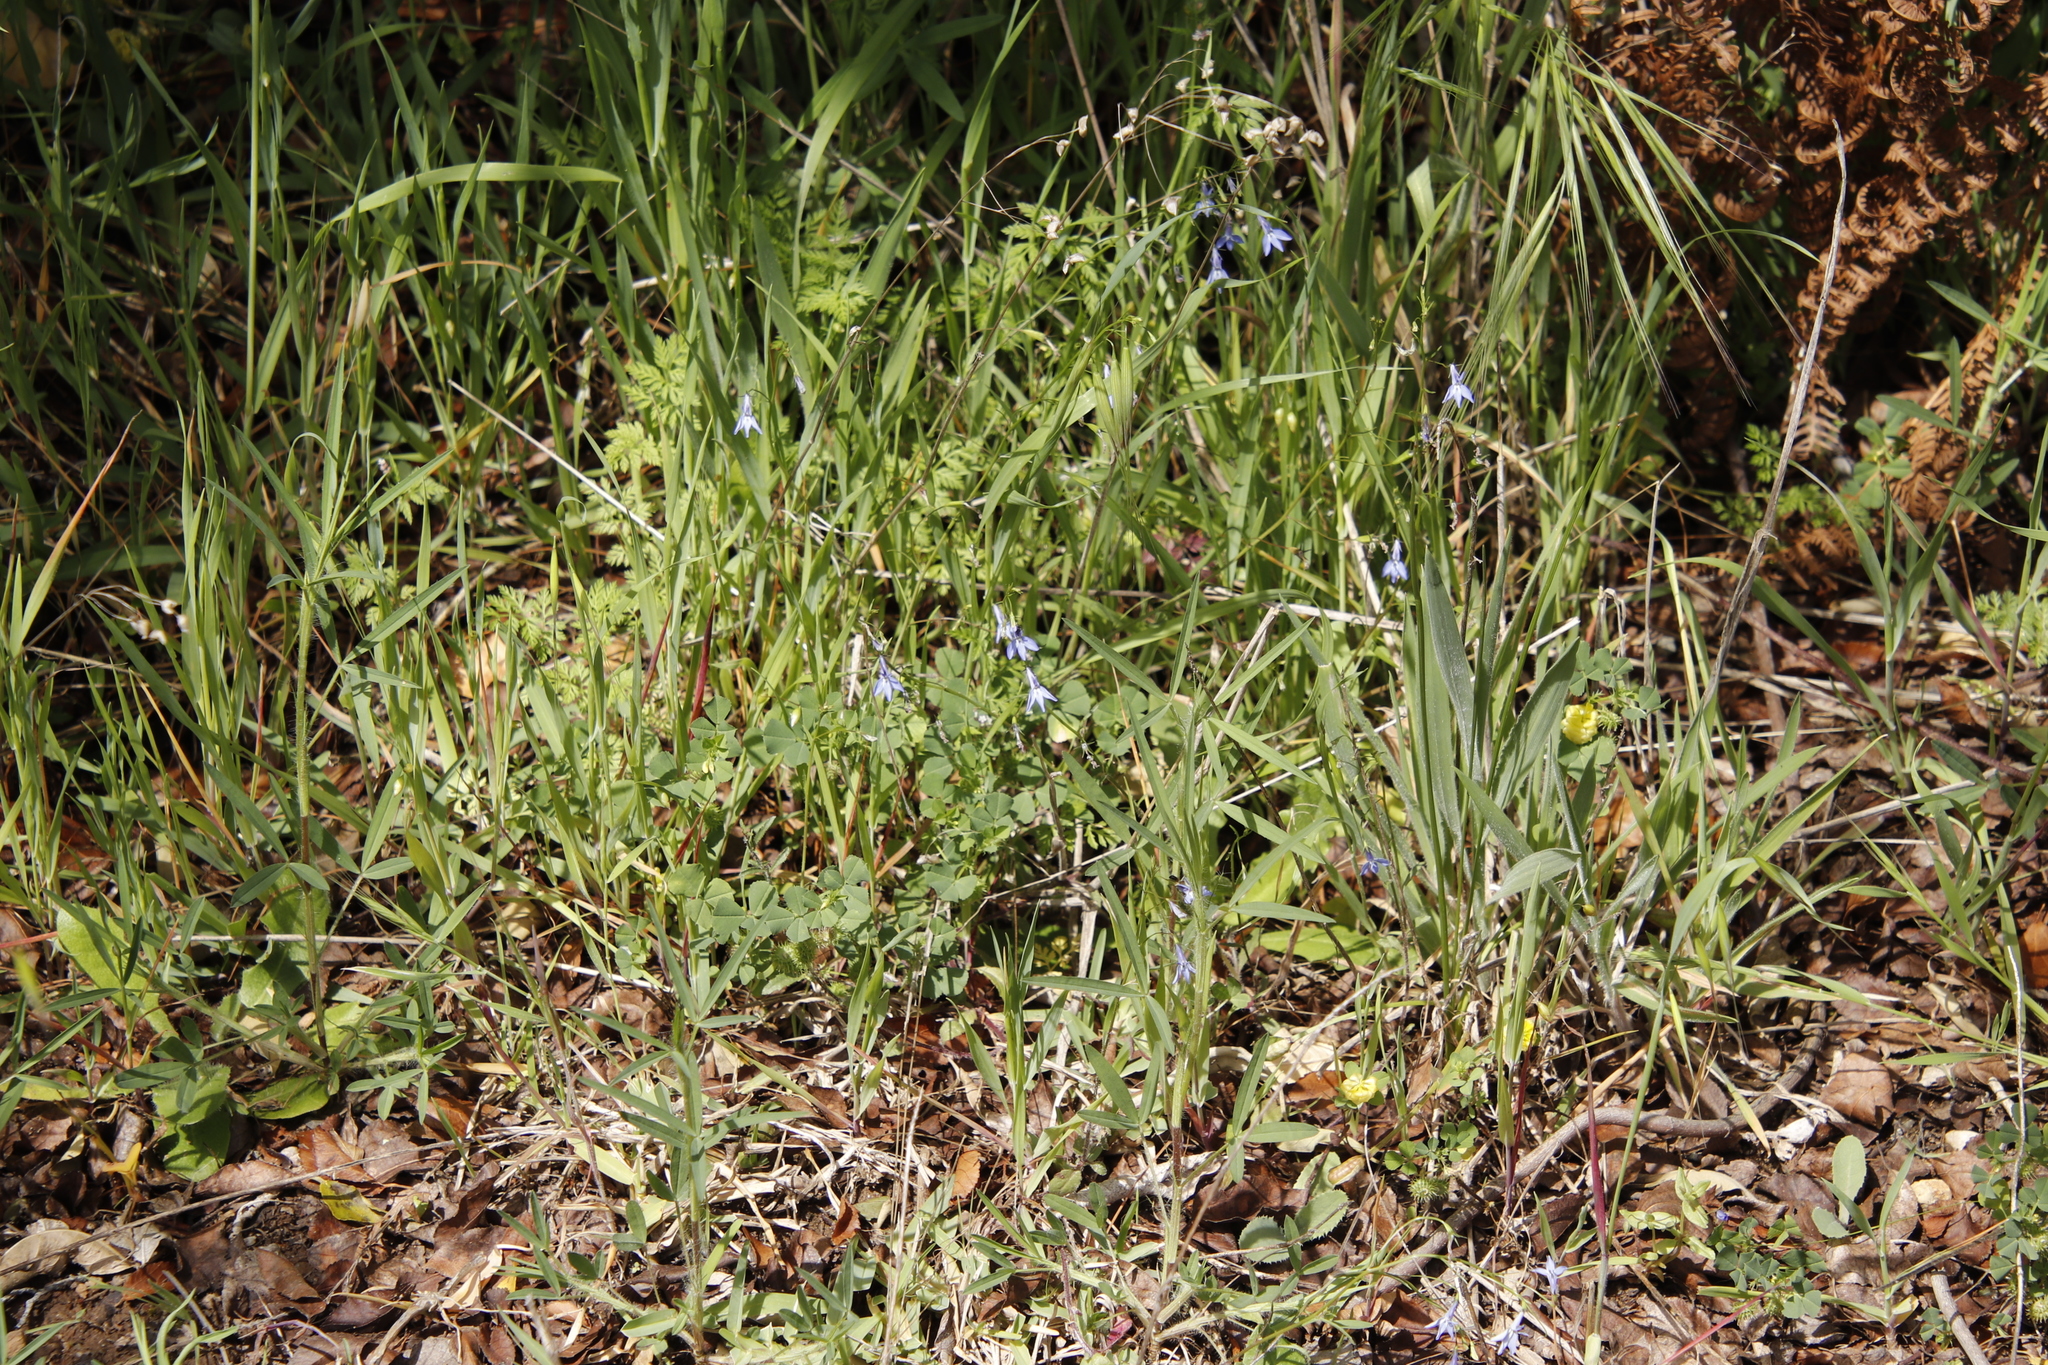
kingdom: Plantae
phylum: Tracheophyta
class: Magnoliopsida
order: Asterales
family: Campanulaceae
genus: Lobelia
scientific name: Lobelia erinus
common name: Edging lobelia
